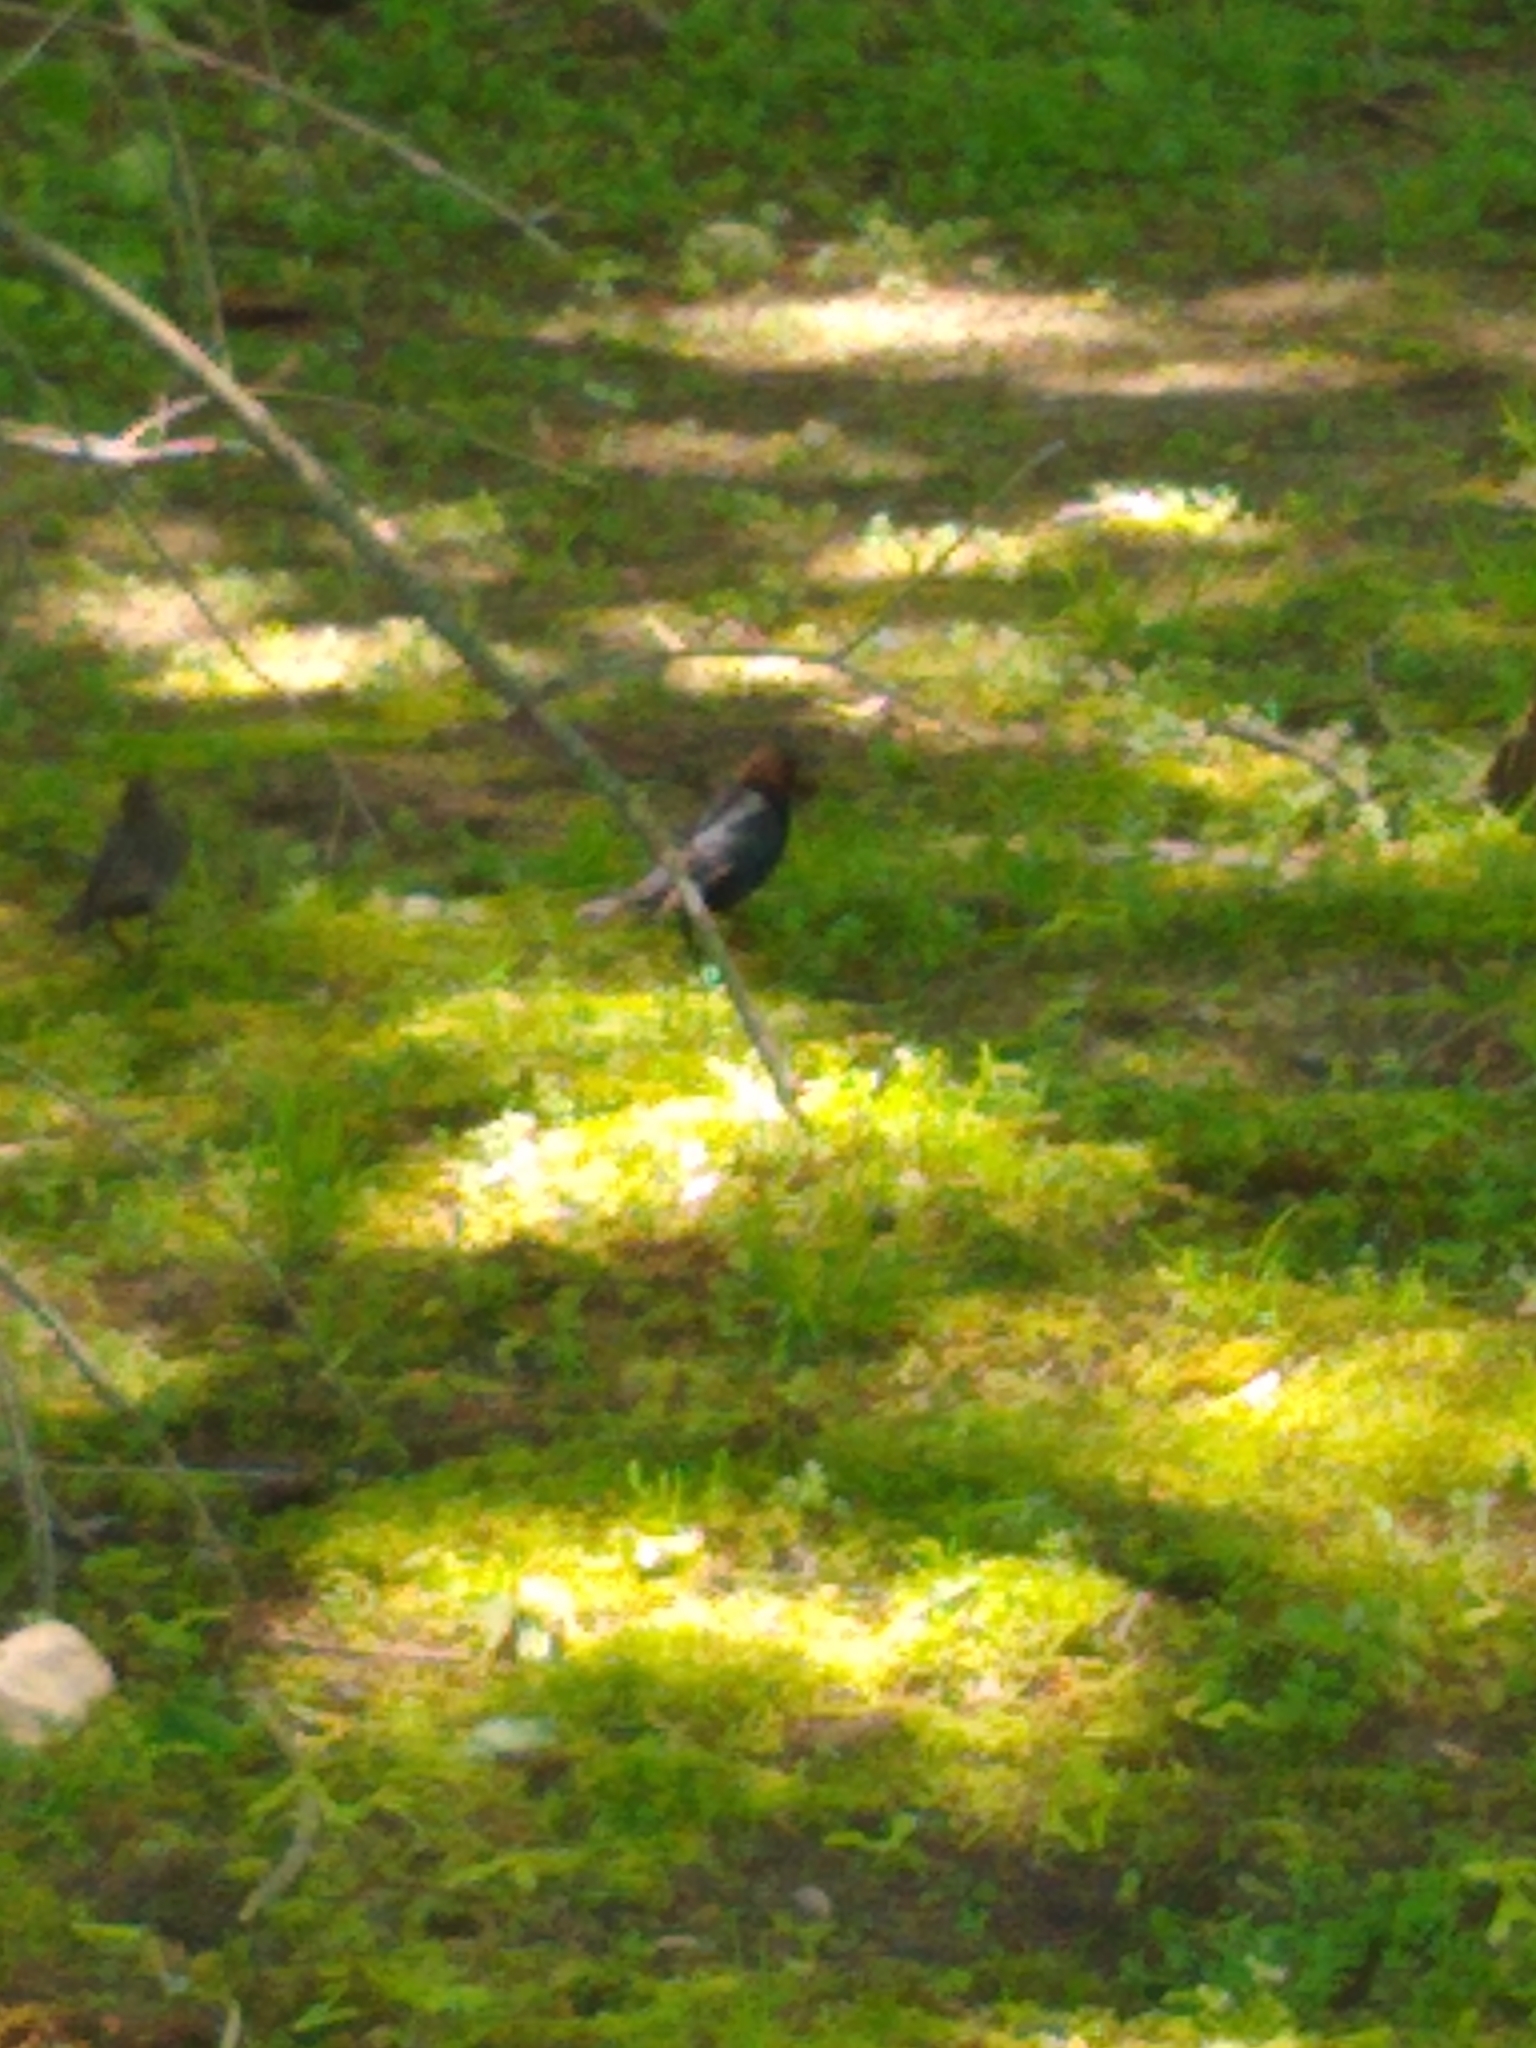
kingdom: Animalia
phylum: Chordata
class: Aves
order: Passeriformes
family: Icteridae
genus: Molothrus
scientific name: Molothrus ater
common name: Brown-headed cowbird
